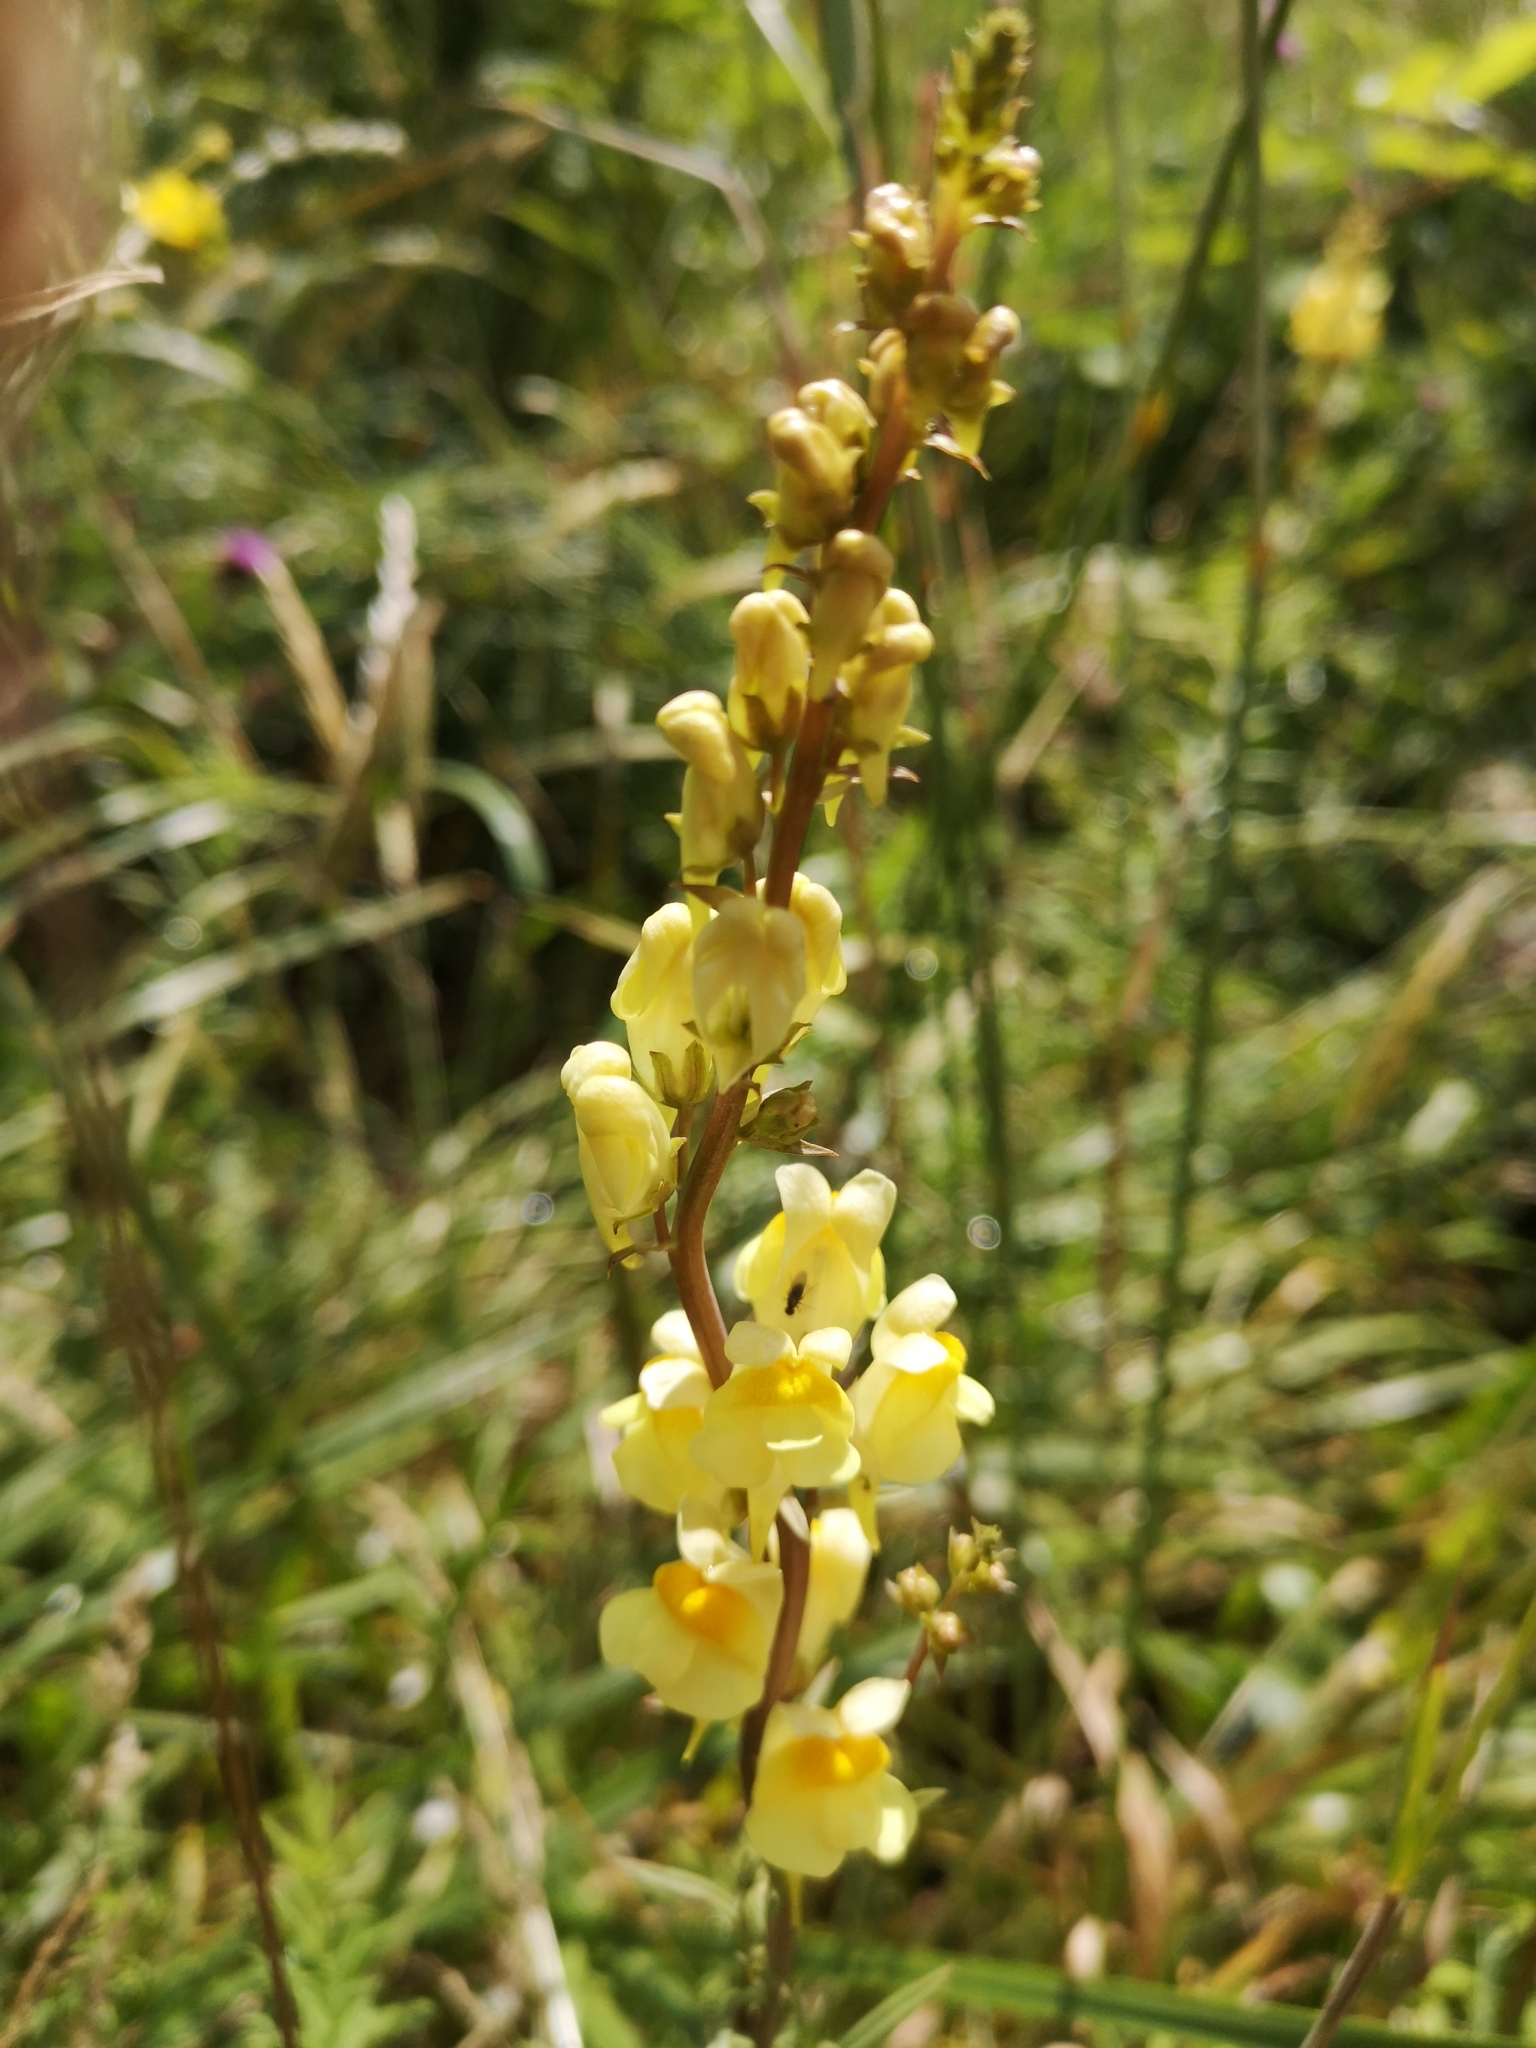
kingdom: Plantae
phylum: Tracheophyta
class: Magnoliopsida
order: Lamiales
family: Plantaginaceae
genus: Linaria
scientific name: Linaria vulgaris
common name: Butter and eggs
